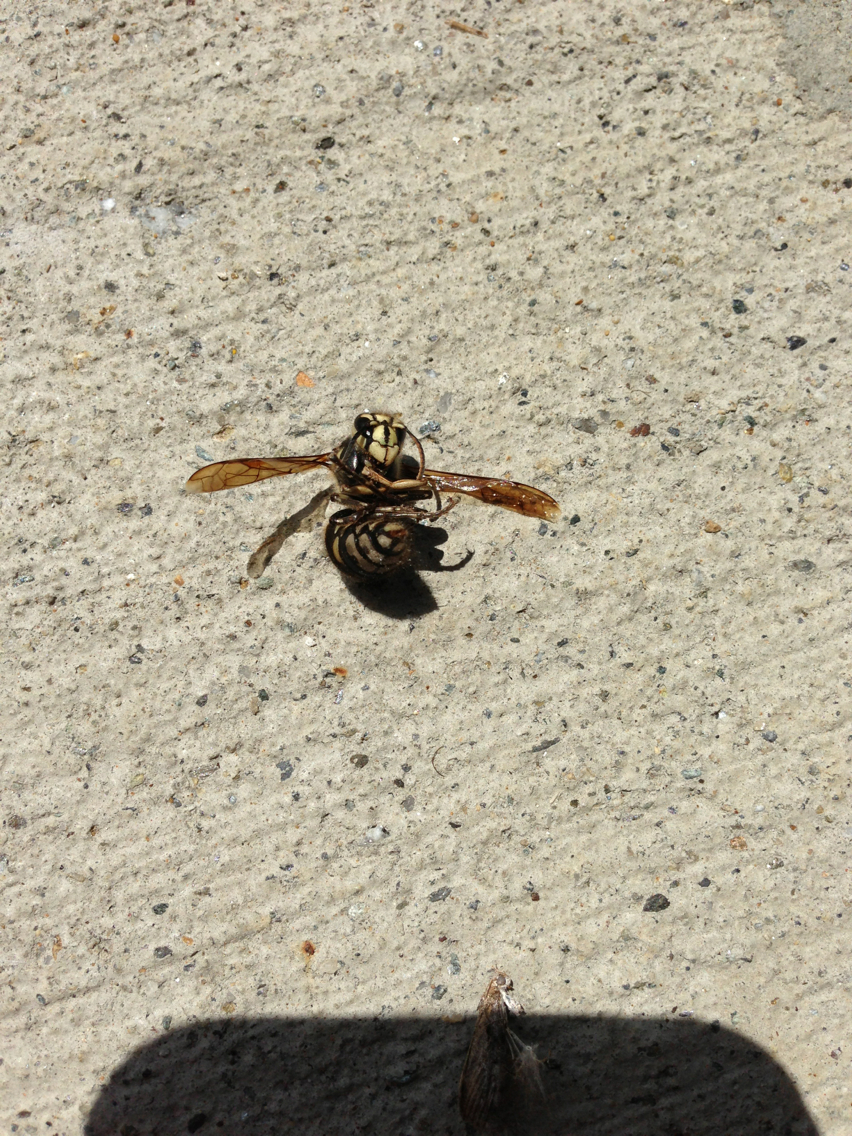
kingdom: Animalia
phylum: Arthropoda
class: Insecta
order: Hymenoptera
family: Vespidae
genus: Dolichovespula
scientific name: Dolichovespula maculata
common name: Bald-faced hornet
